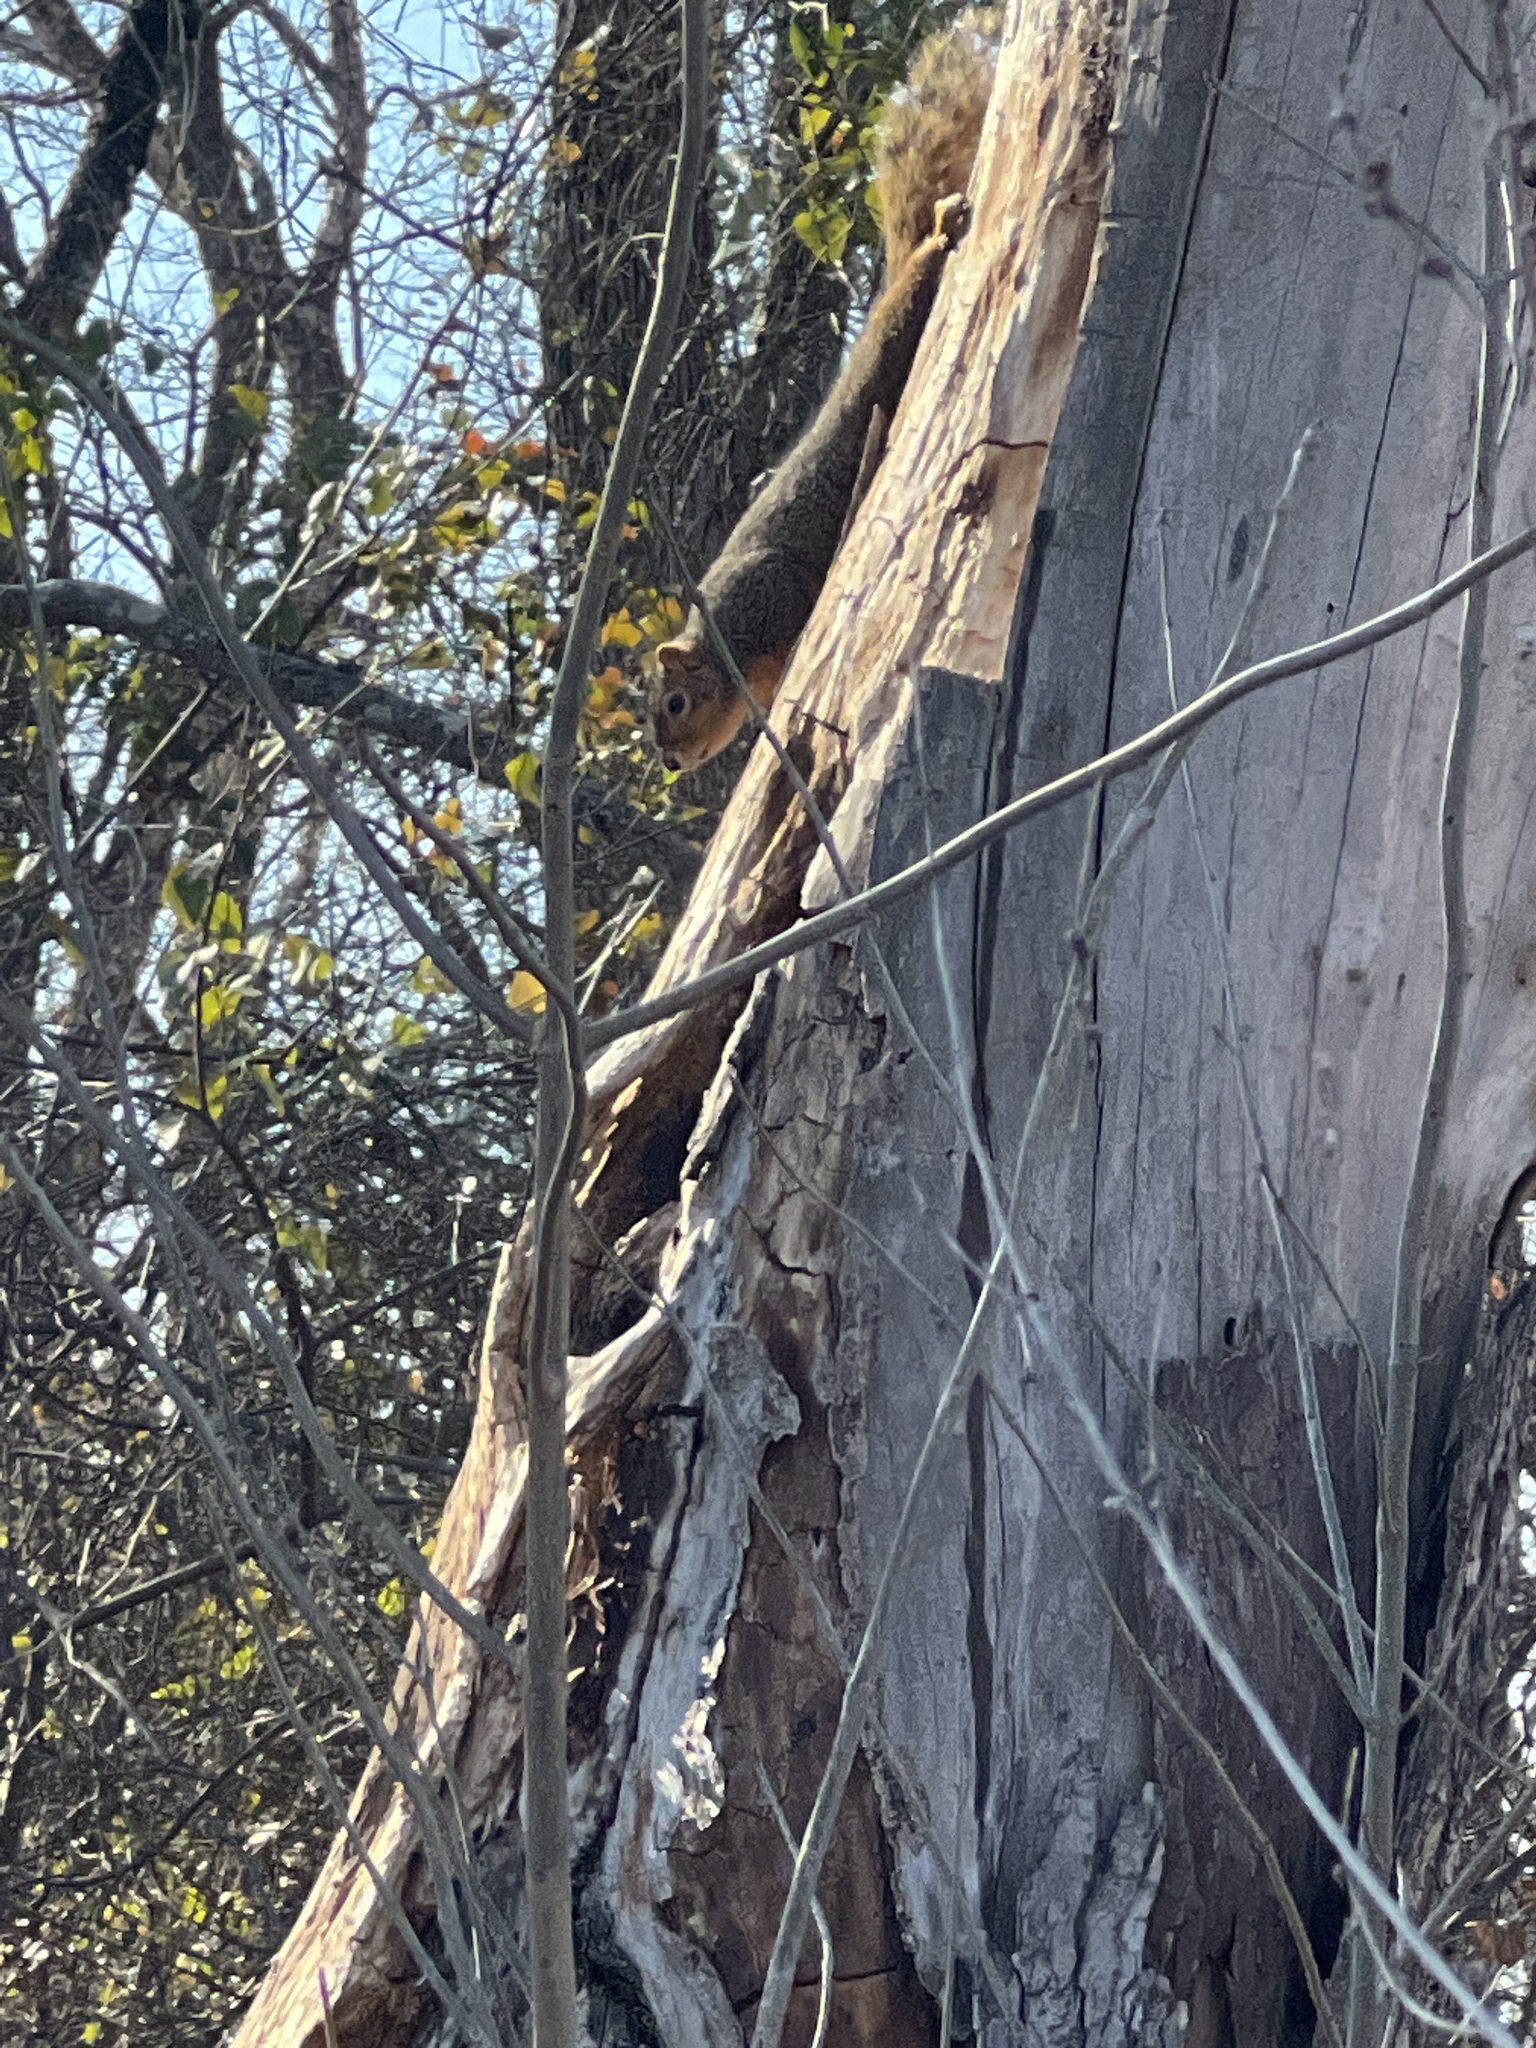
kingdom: Animalia
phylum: Chordata
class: Mammalia
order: Rodentia
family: Sciuridae
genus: Sciurus
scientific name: Sciurus niger
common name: Fox squirrel
